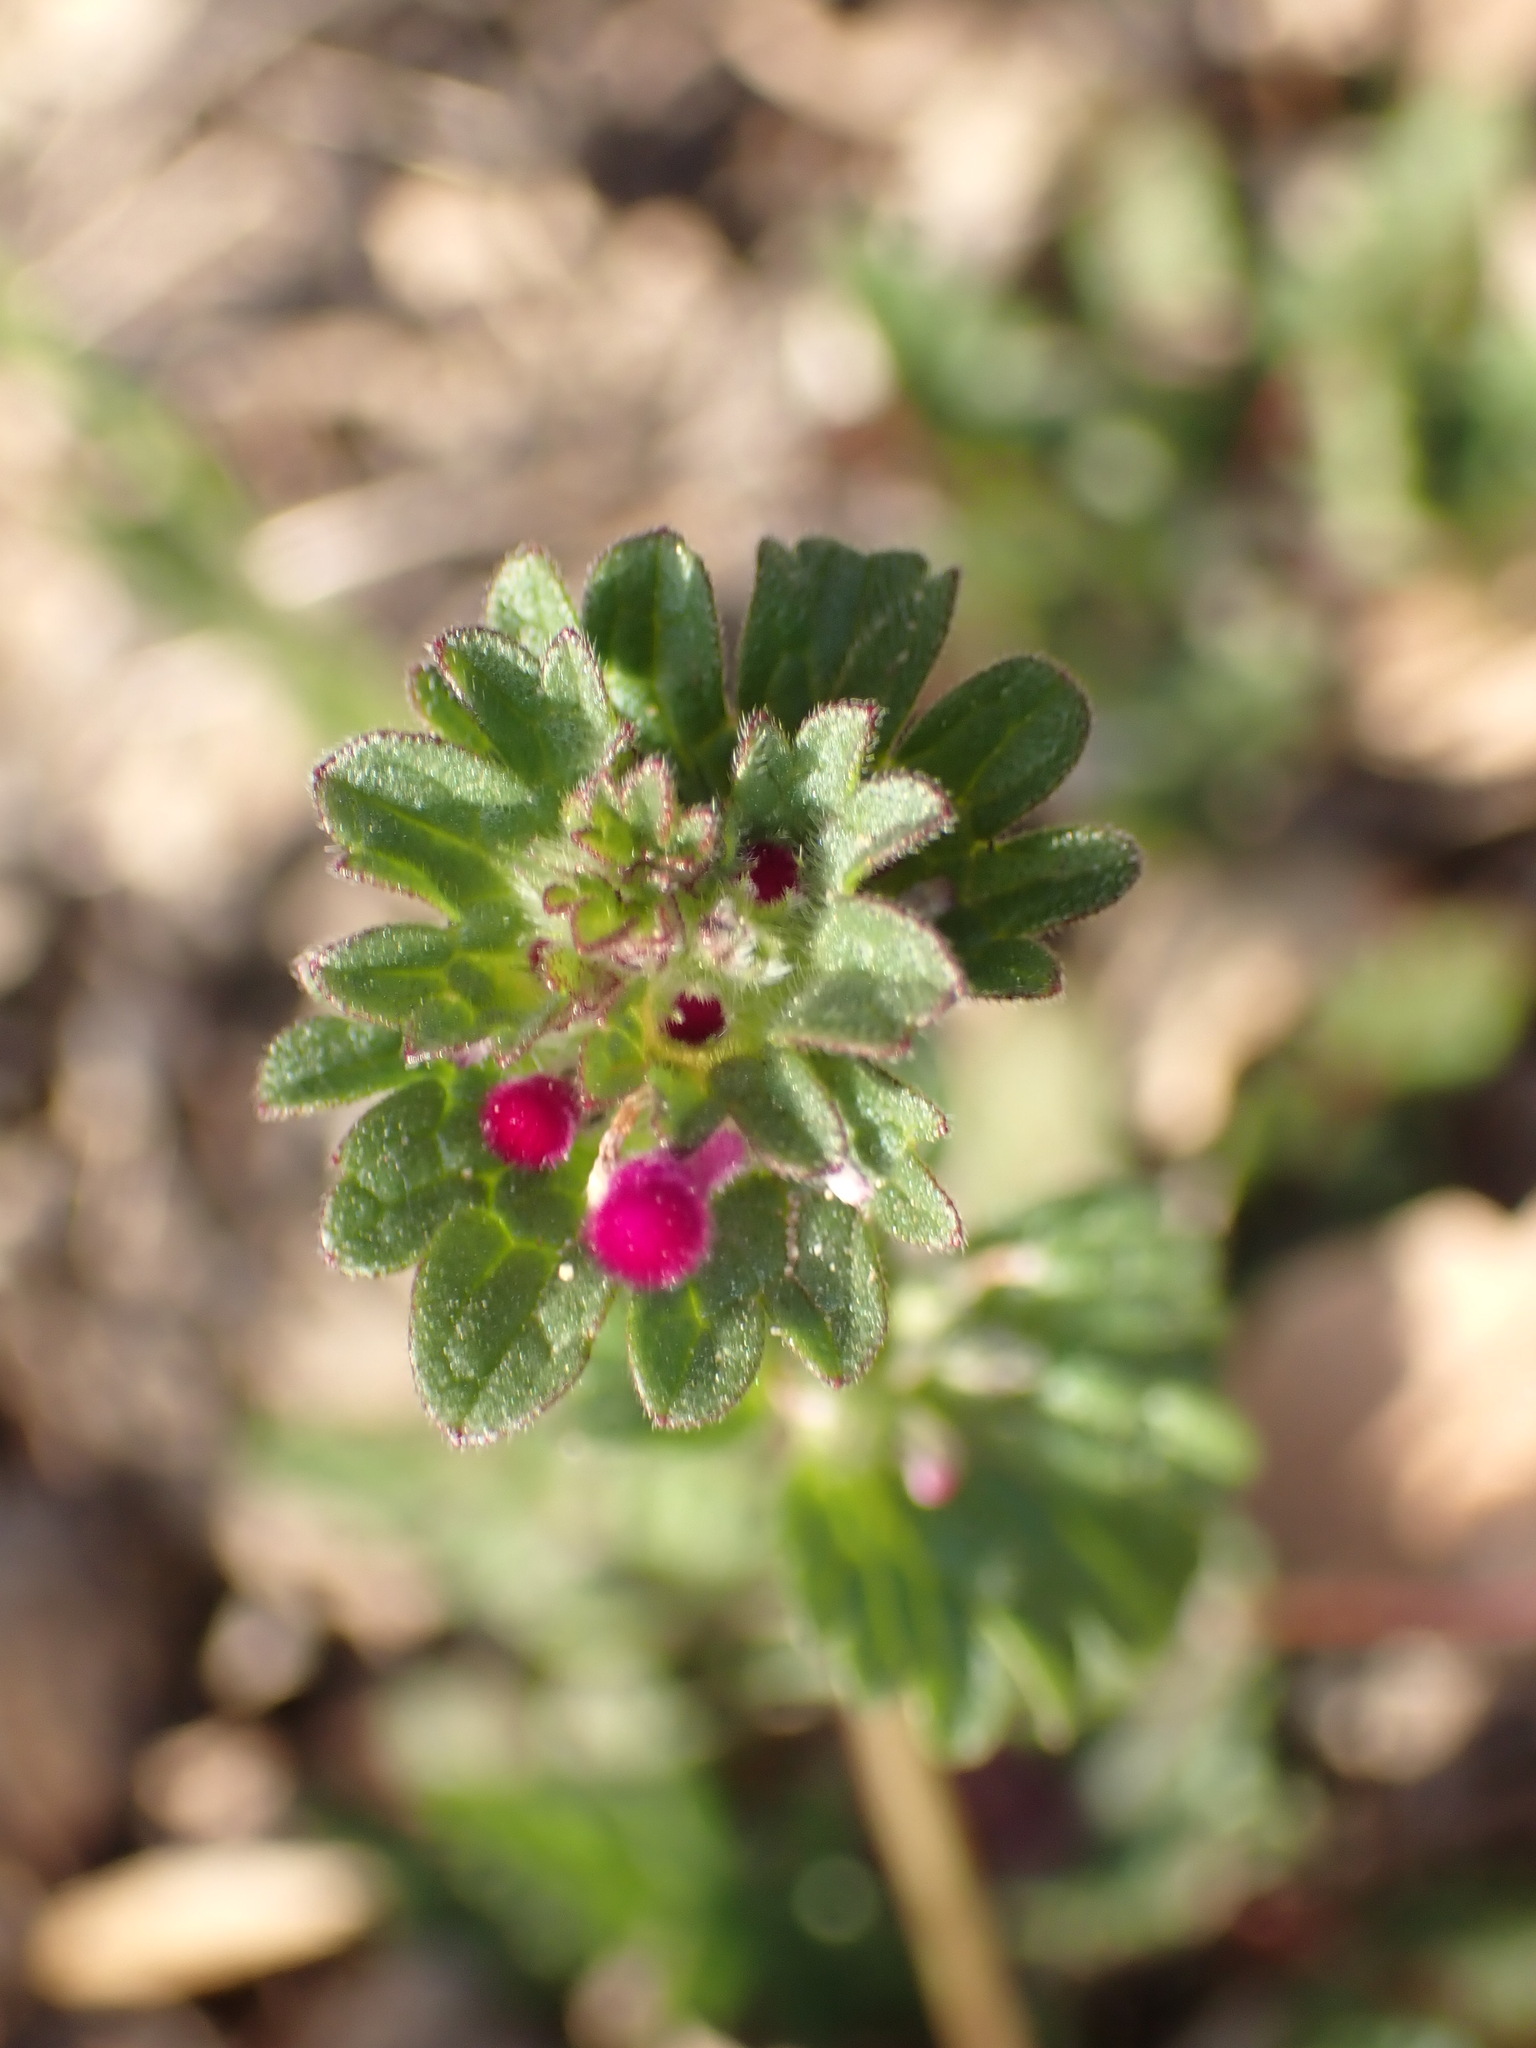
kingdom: Plantae
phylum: Tracheophyta
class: Magnoliopsida
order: Lamiales
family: Lamiaceae
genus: Lamium
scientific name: Lamium amplexicaule
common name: Henbit dead-nettle
